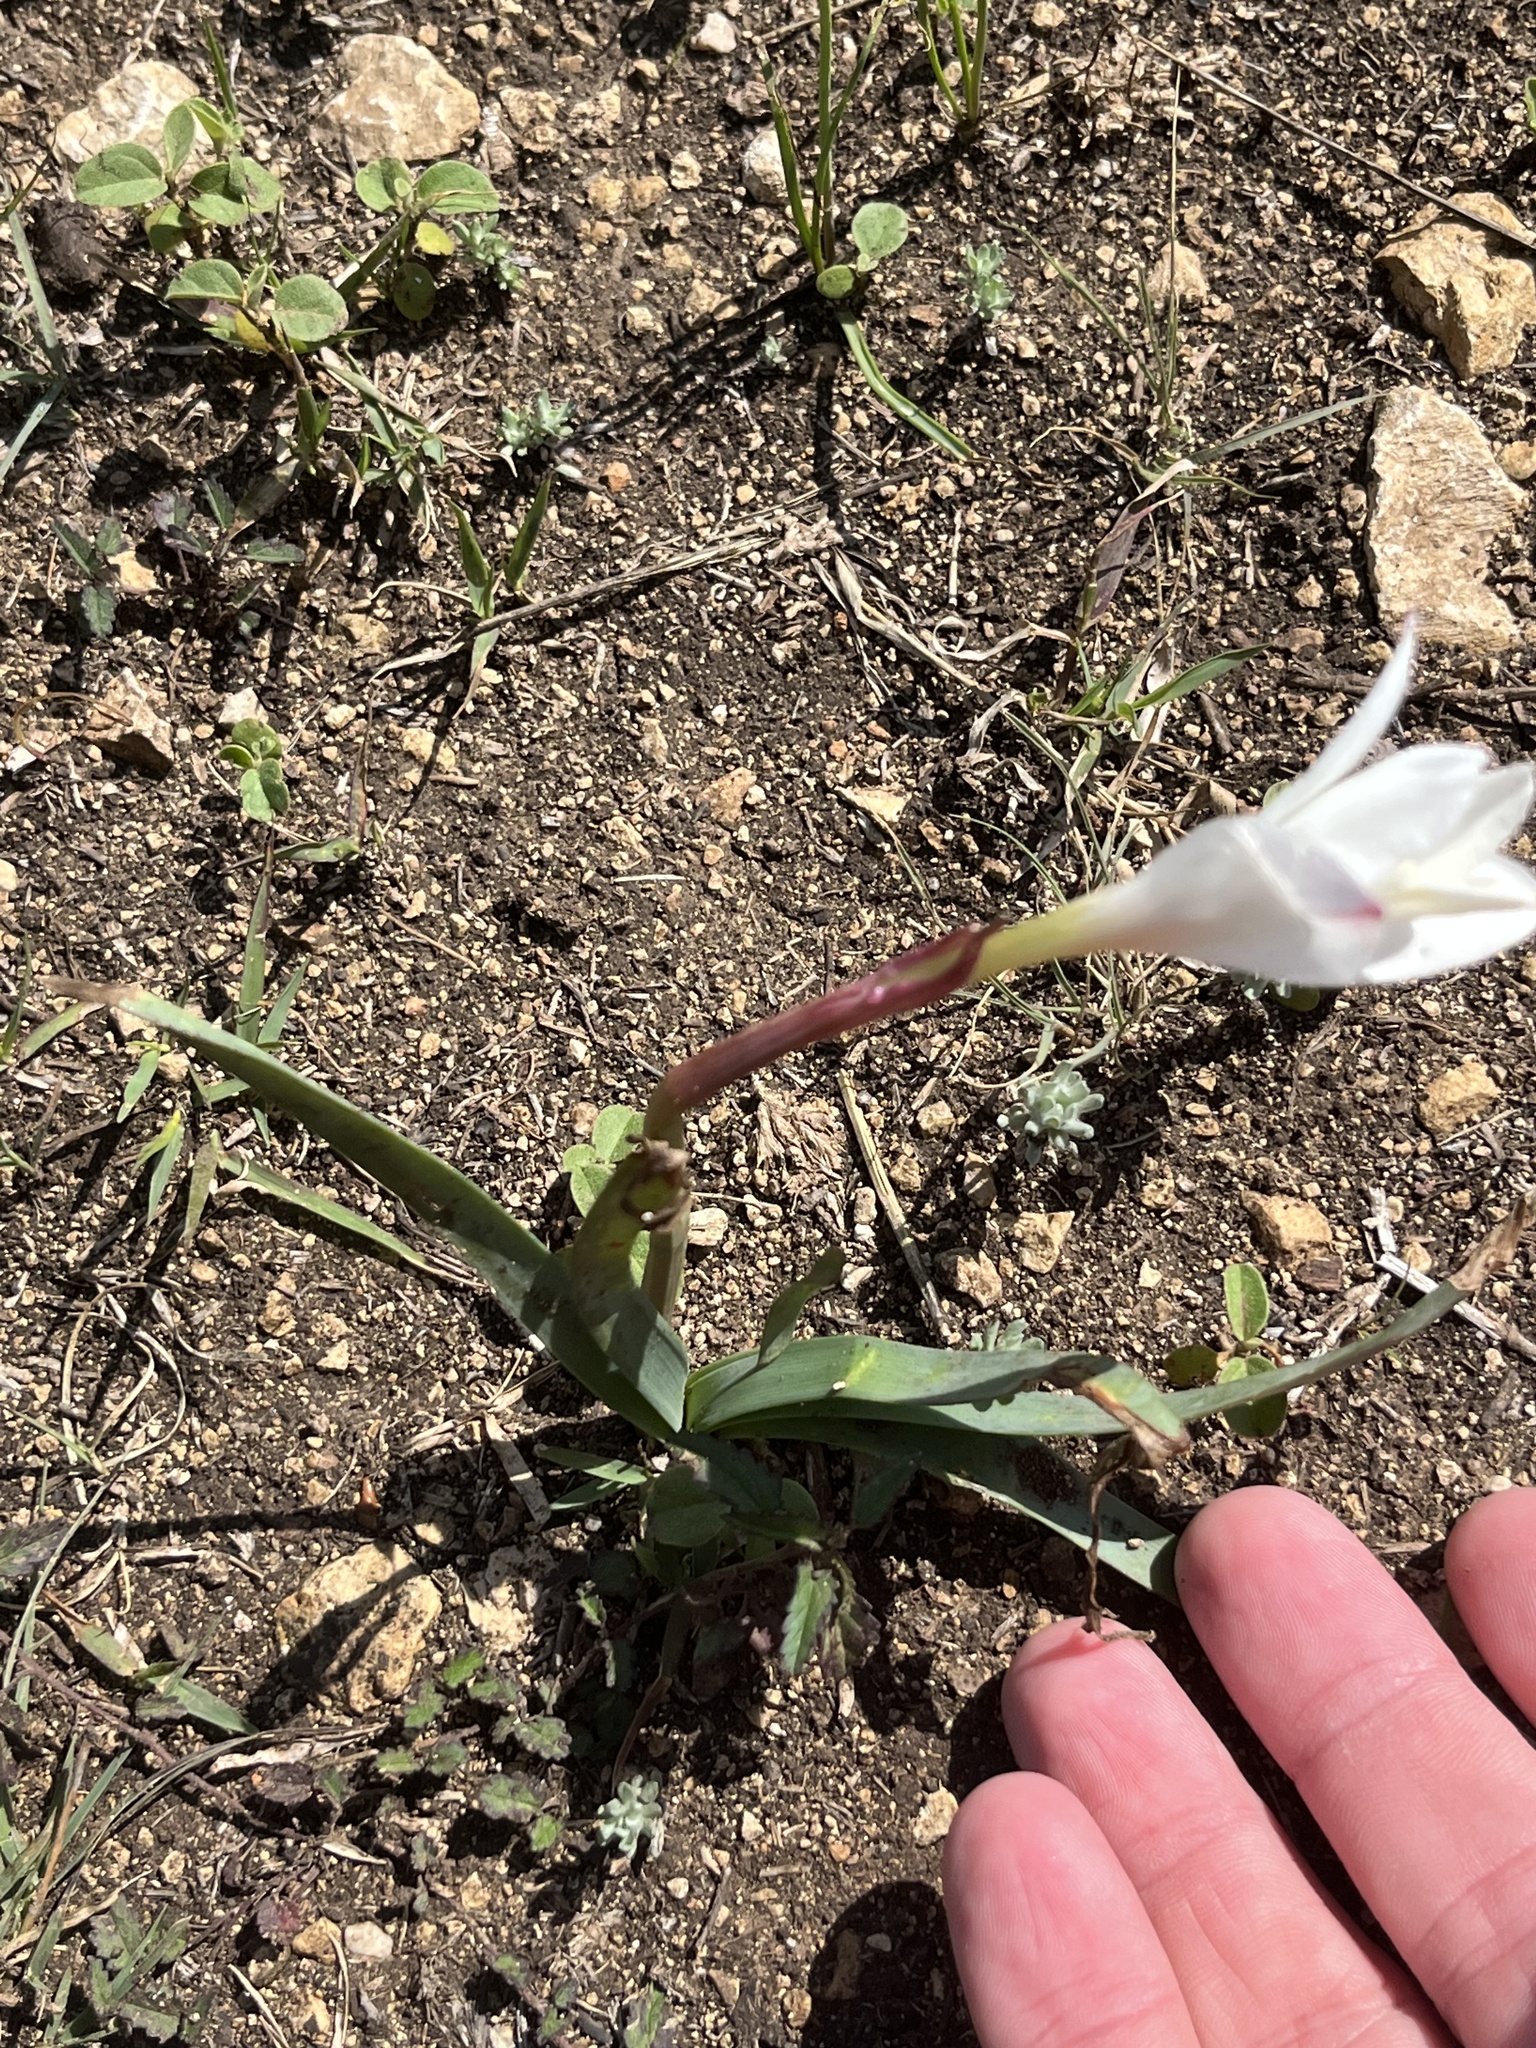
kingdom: Plantae
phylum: Tracheophyta
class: Liliopsida
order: Asparagales
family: Amaryllidaceae
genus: Zephyranthes
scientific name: Zephyranthes drummondii
